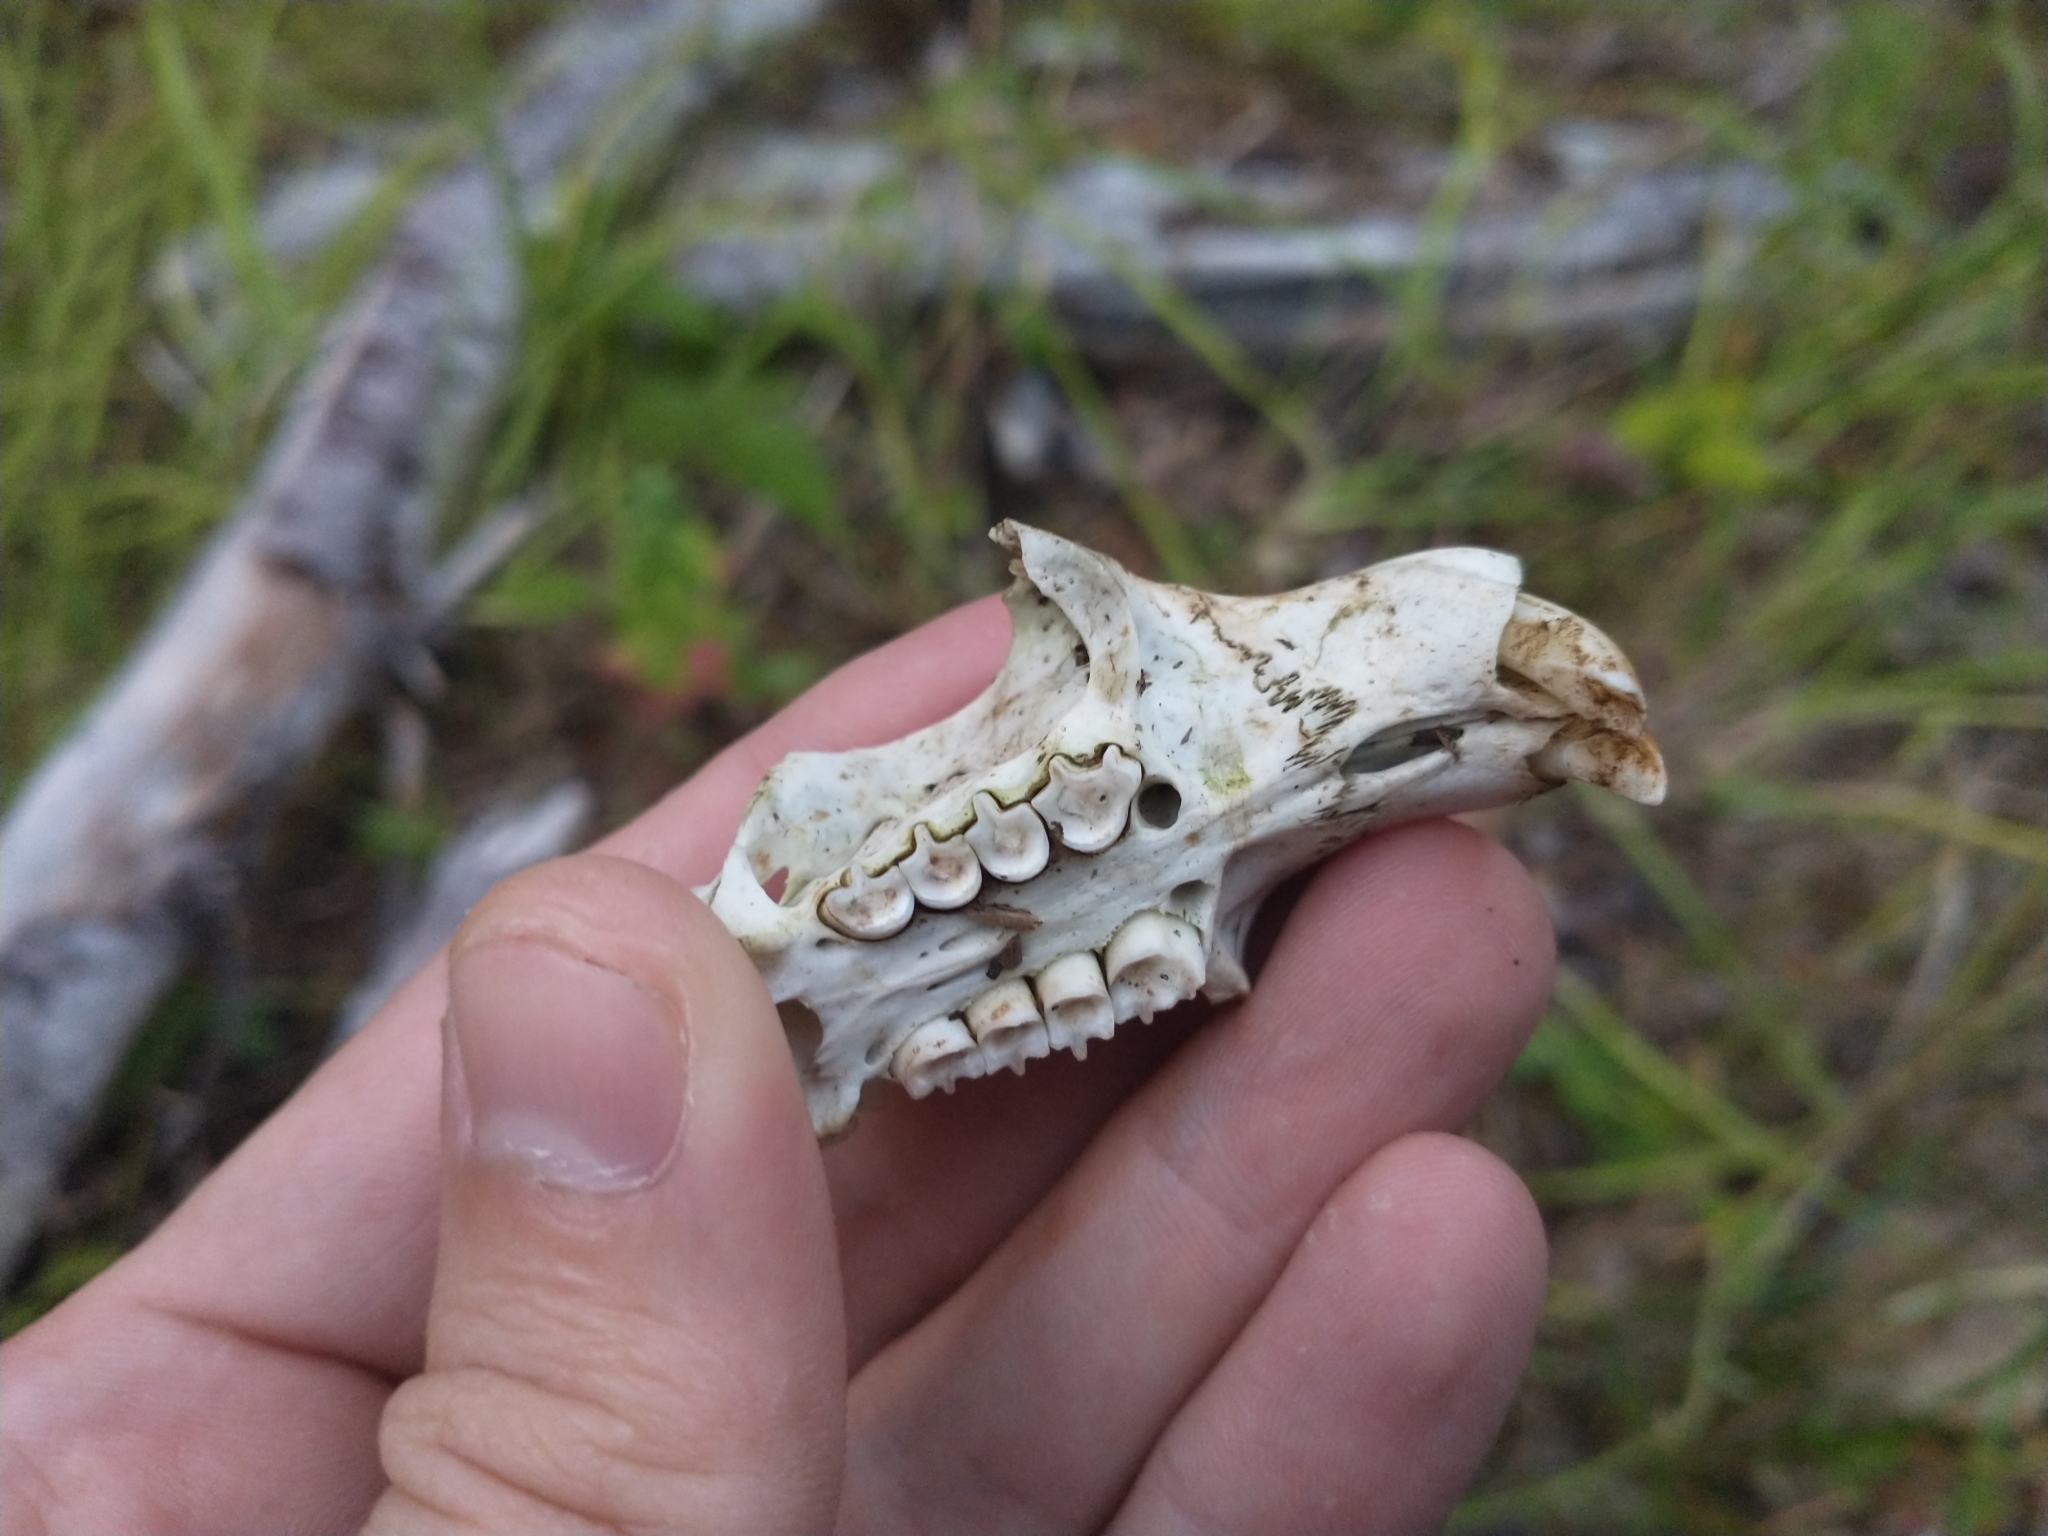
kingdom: Animalia
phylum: Chordata
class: Mammalia
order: Rodentia
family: Aplodontiidae
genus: Aplodontia
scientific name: Aplodontia rufa
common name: Mountain beaver
